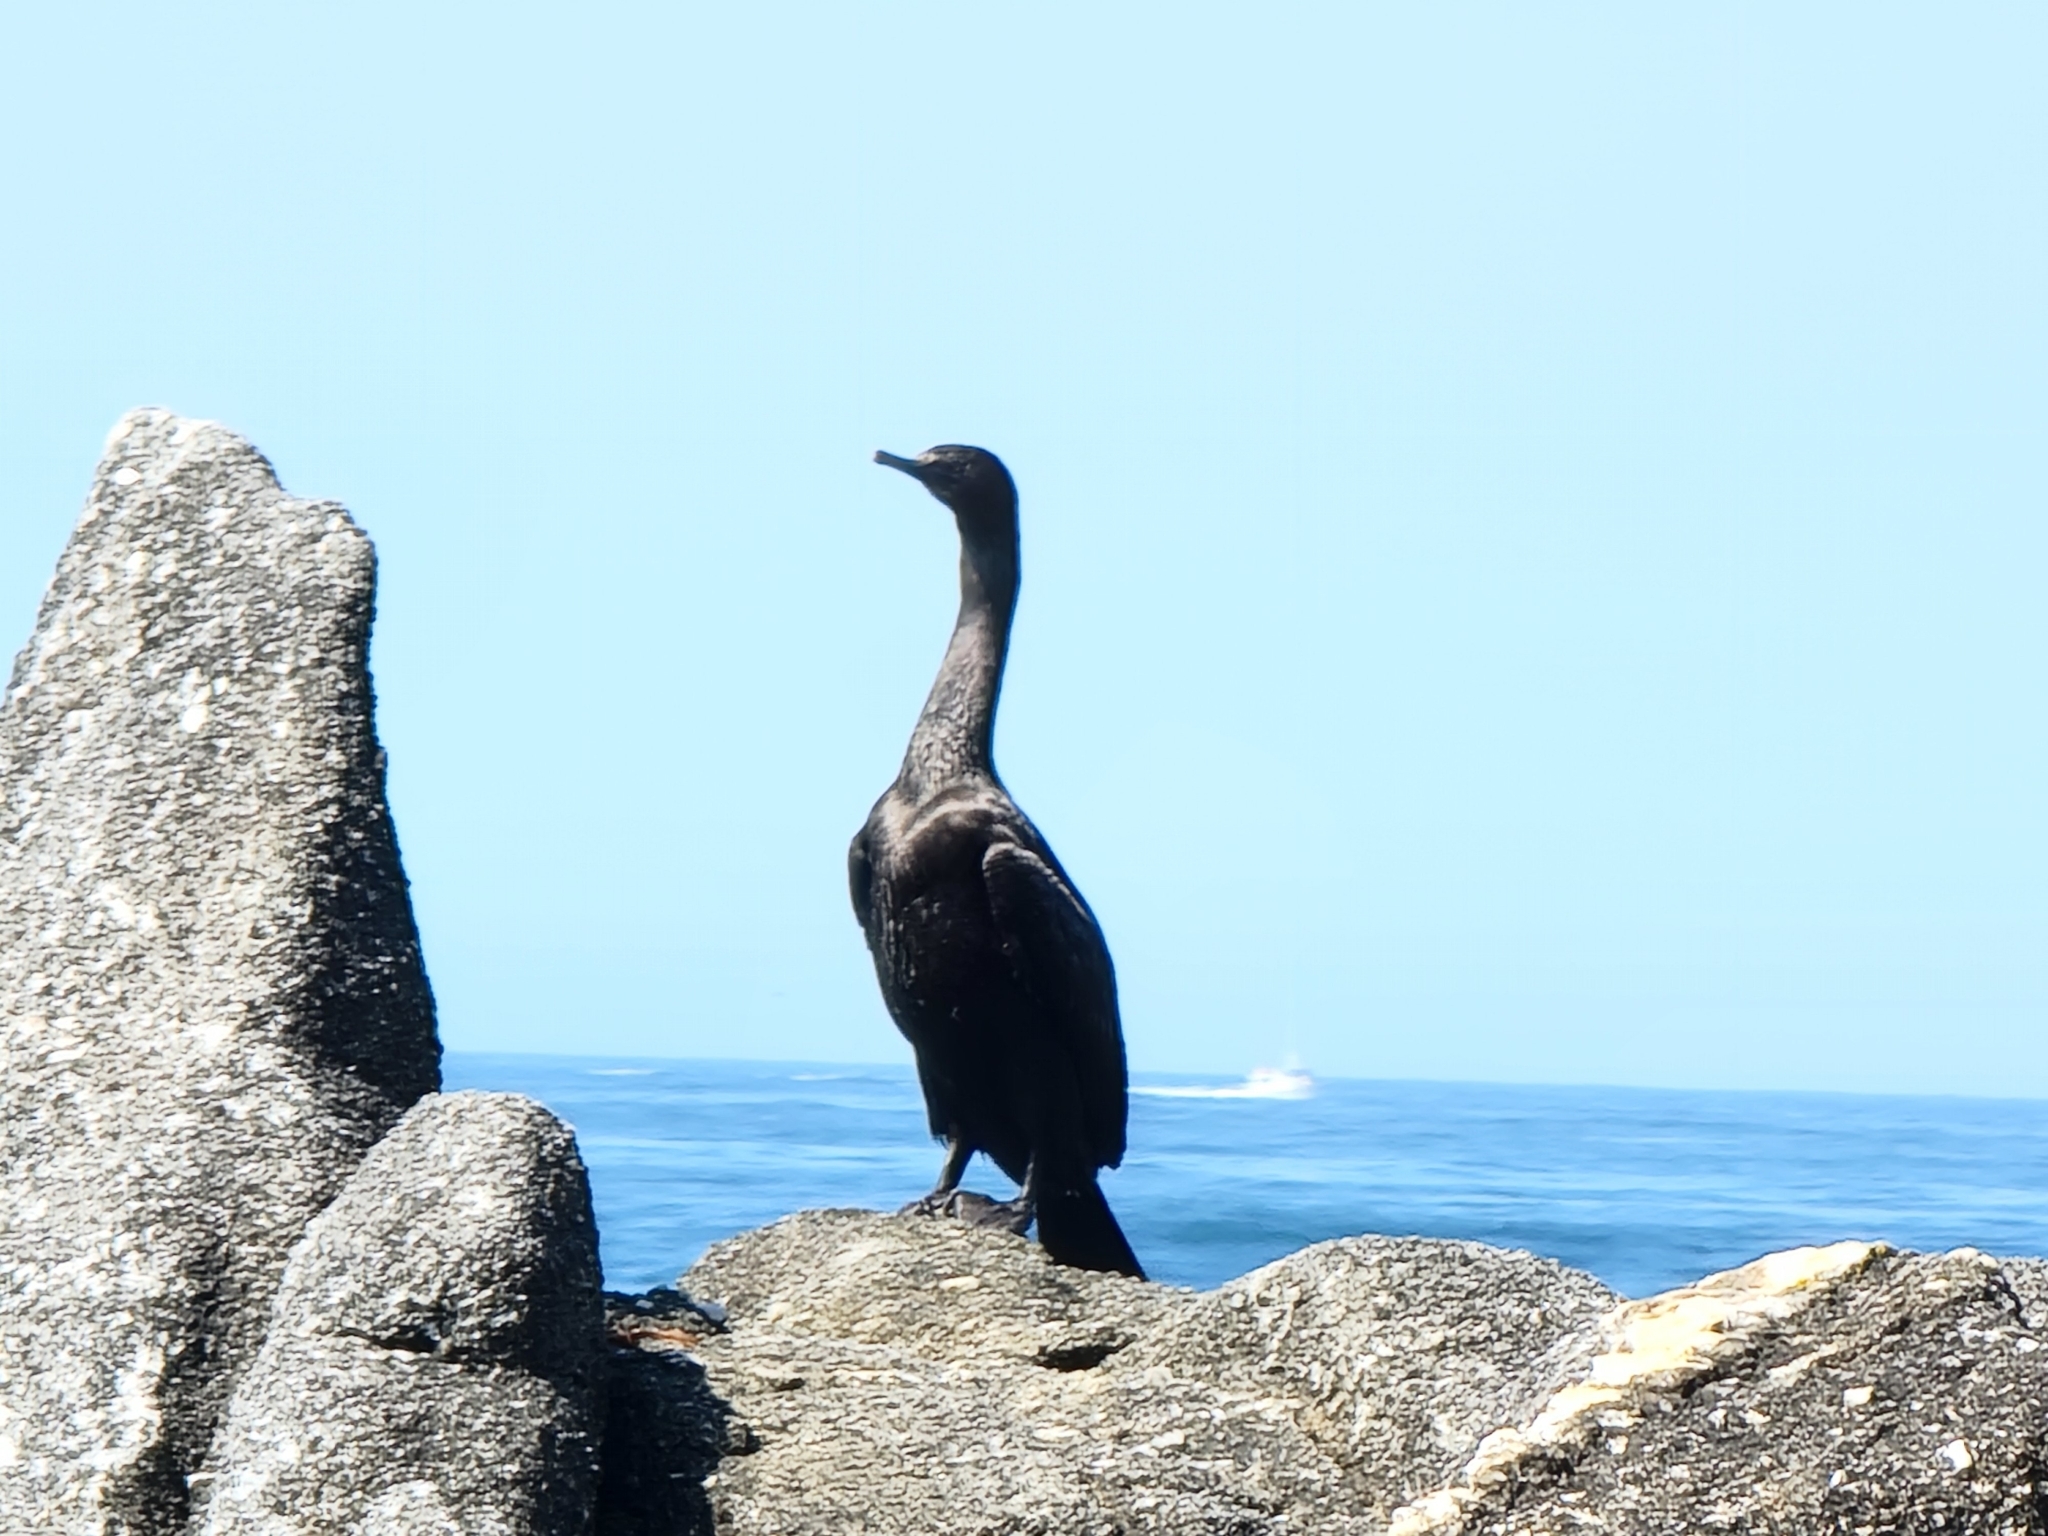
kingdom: Animalia
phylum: Chordata
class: Aves
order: Suliformes
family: Phalacrocoracidae
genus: Phalacrocorax
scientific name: Phalacrocorax pelagicus
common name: Pelagic cormorant
